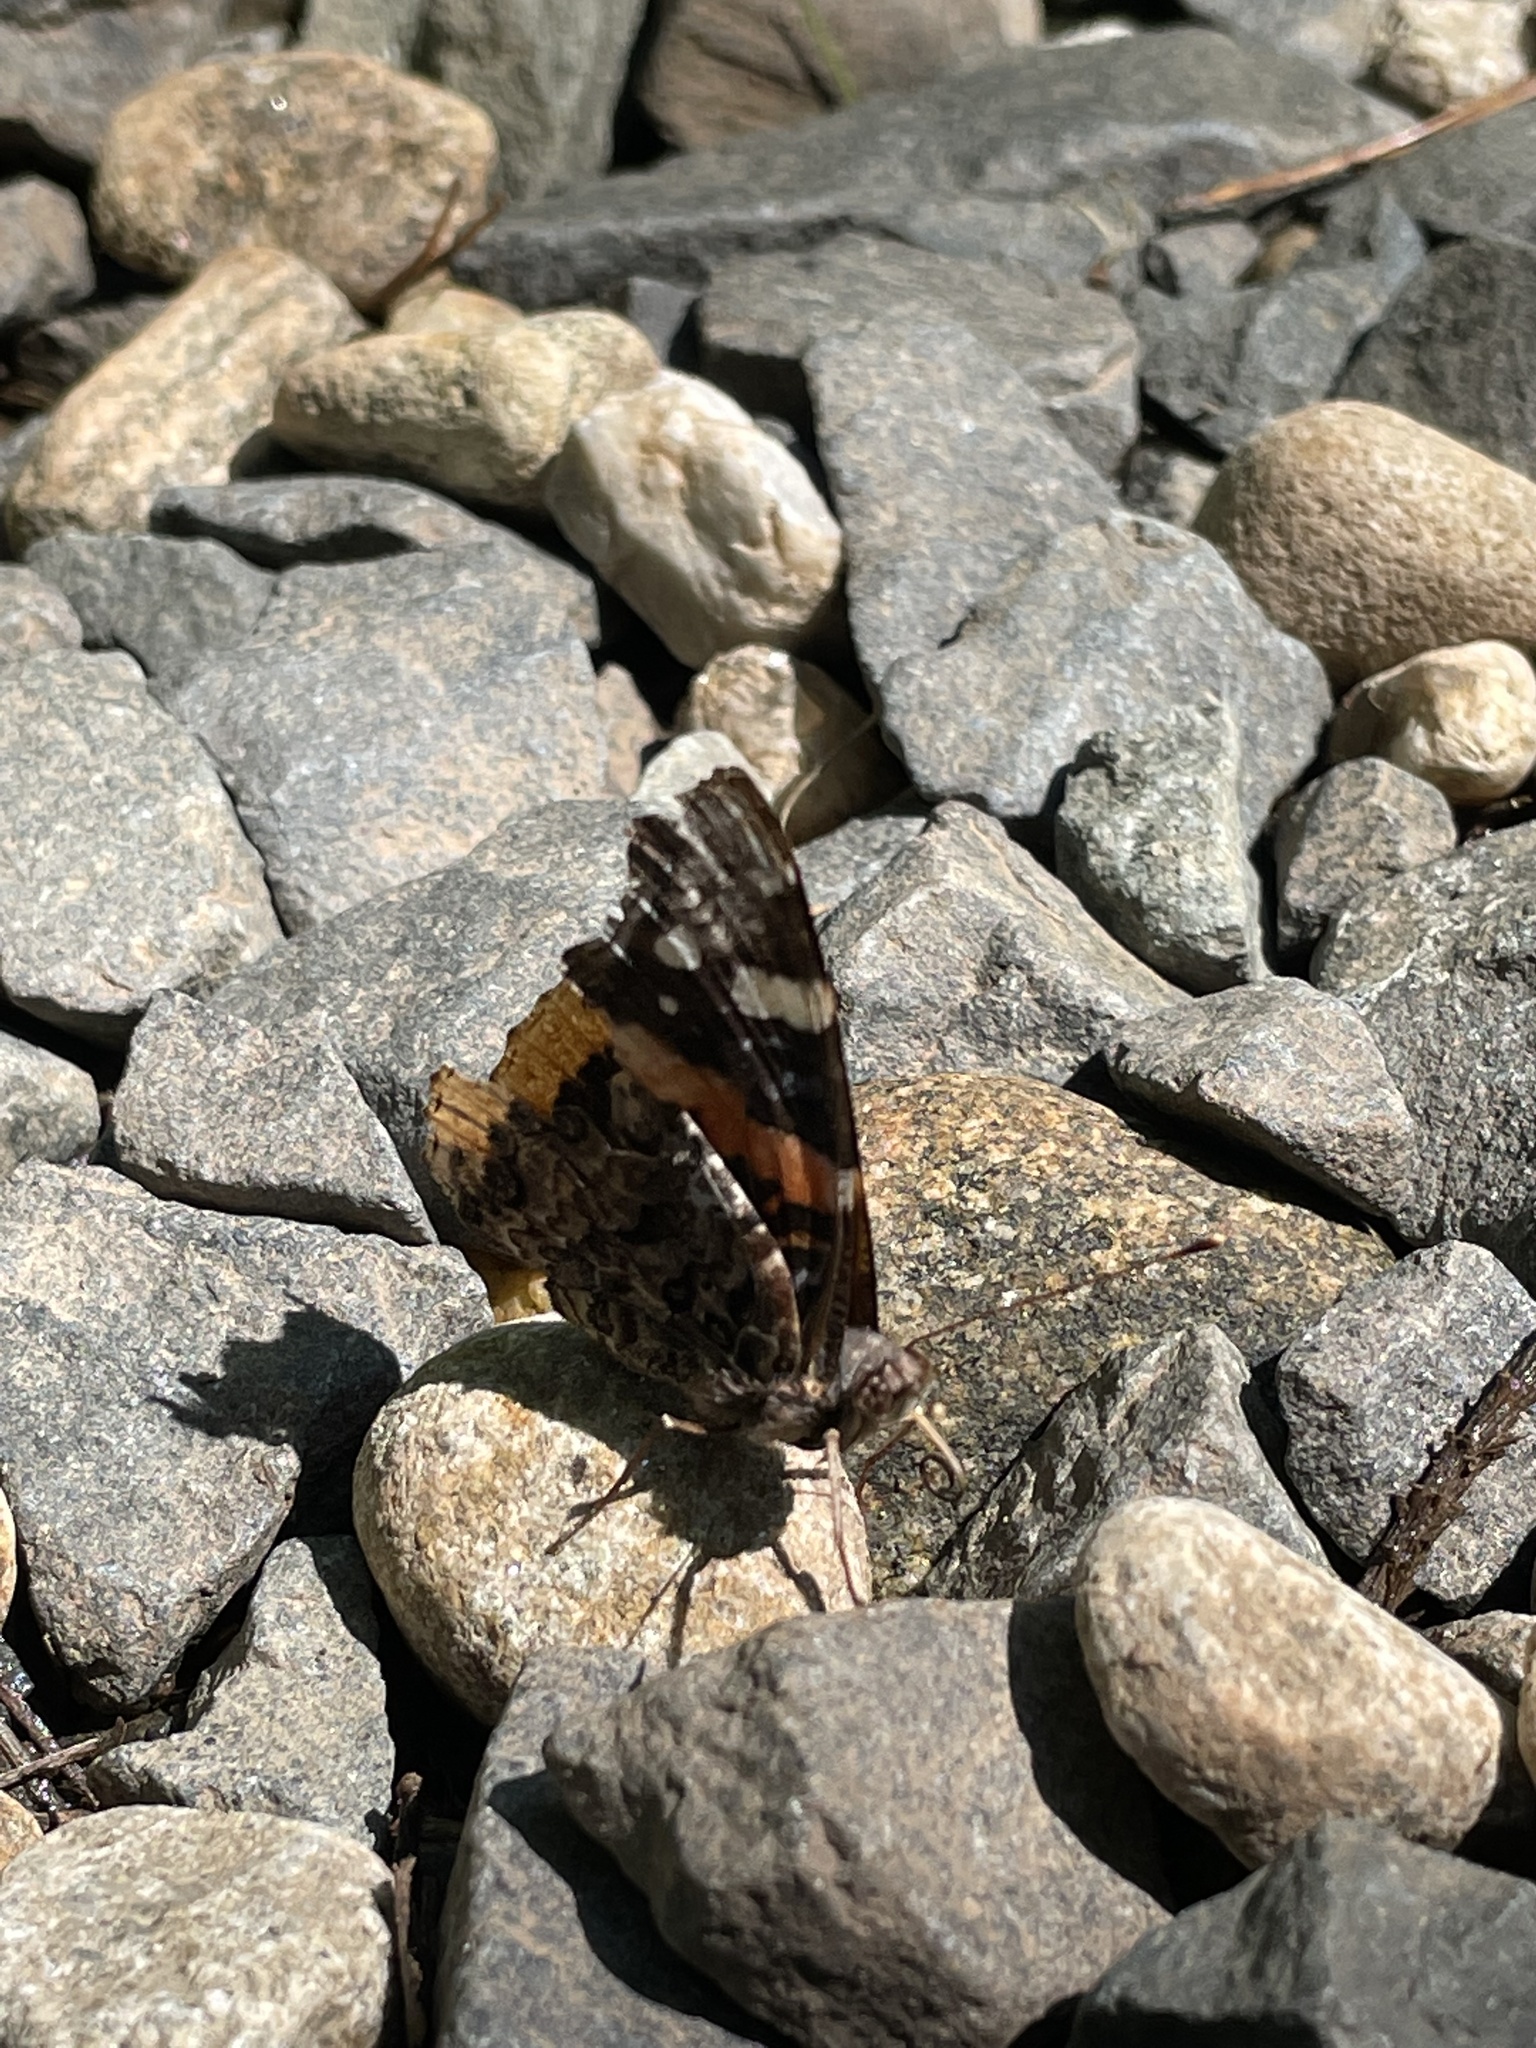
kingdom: Animalia
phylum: Arthropoda
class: Insecta
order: Lepidoptera
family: Nymphalidae
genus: Vanessa
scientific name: Vanessa atalanta
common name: Red admiral
